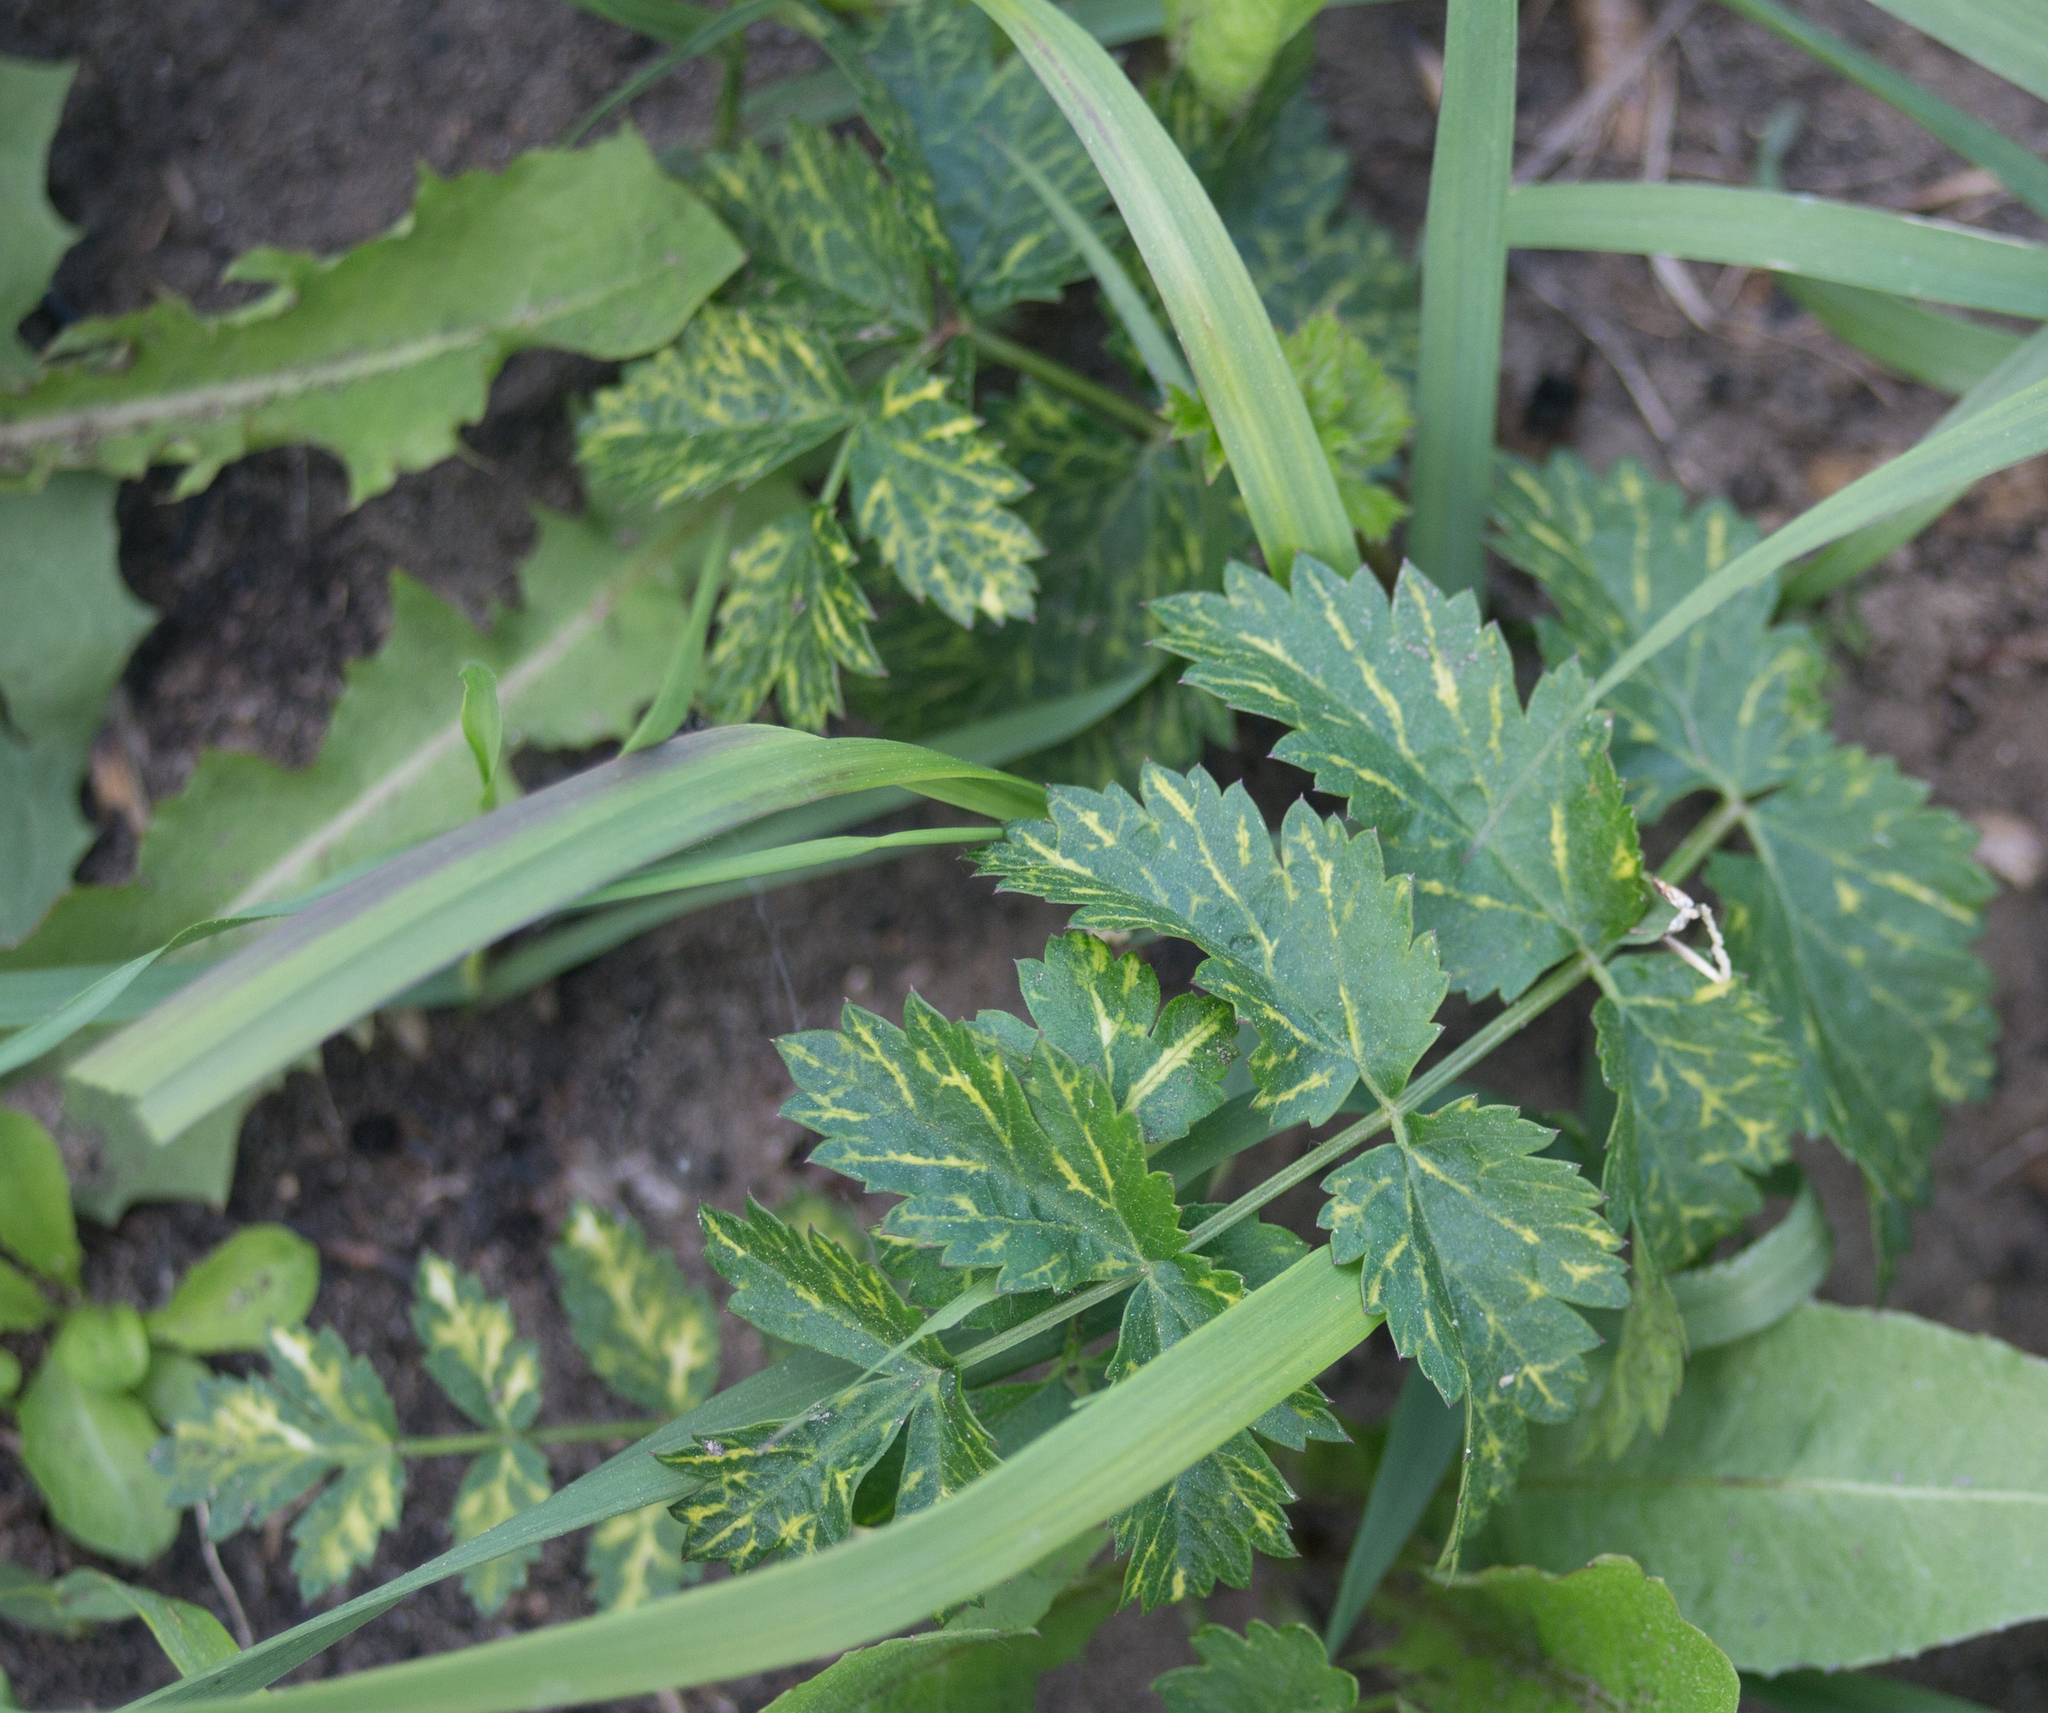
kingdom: Plantae
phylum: Tracheophyta
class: Magnoliopsida
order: Apiales
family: Apiaceae
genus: Pimpinella
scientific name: Pimpinella saxifraga
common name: Burnet-saxifrage
